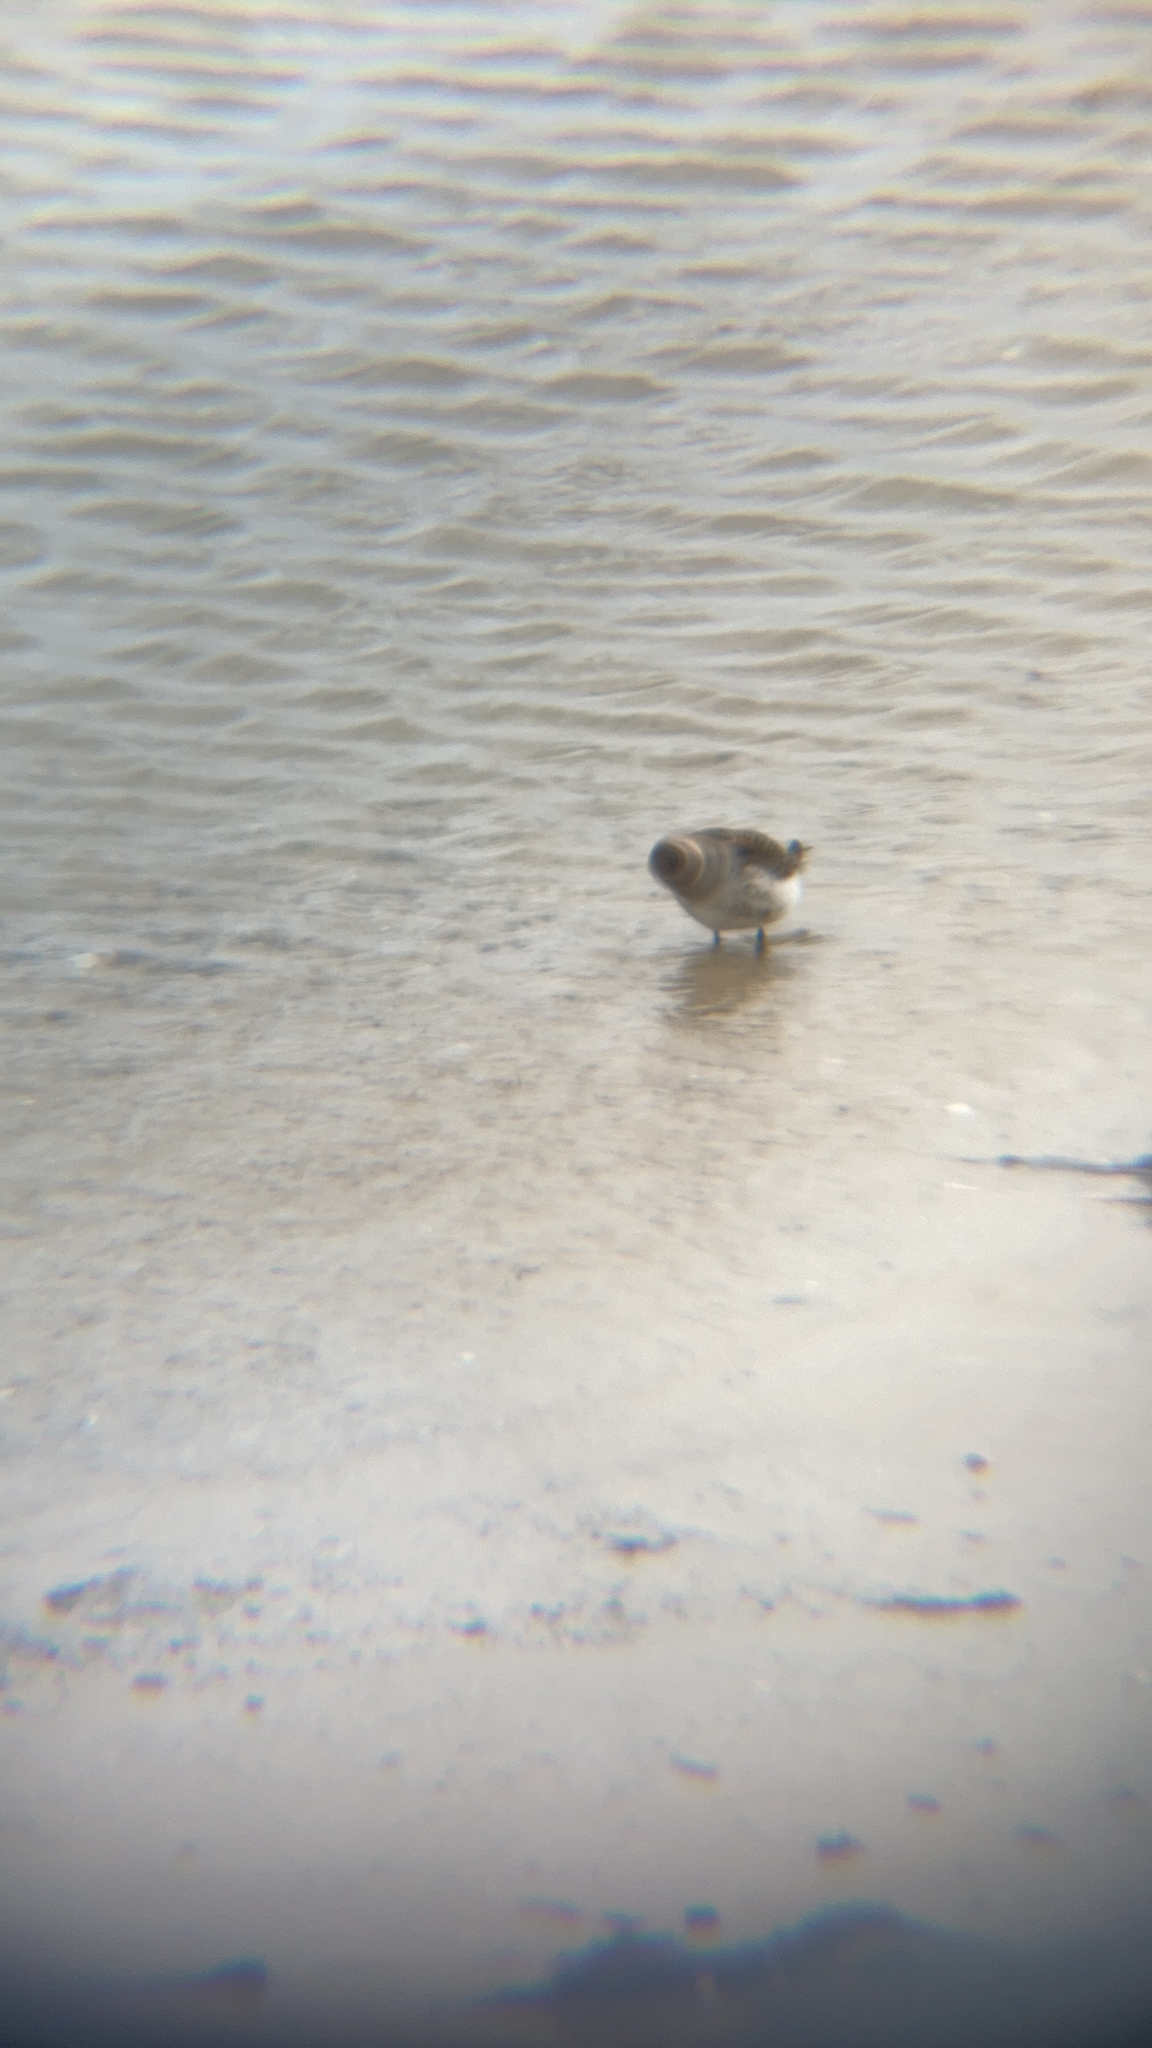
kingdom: Animalia
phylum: Chordata
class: Aves
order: Charadriiformes
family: Scolopacidae
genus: Calidris
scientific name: Calidris alpina
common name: Dunlin
